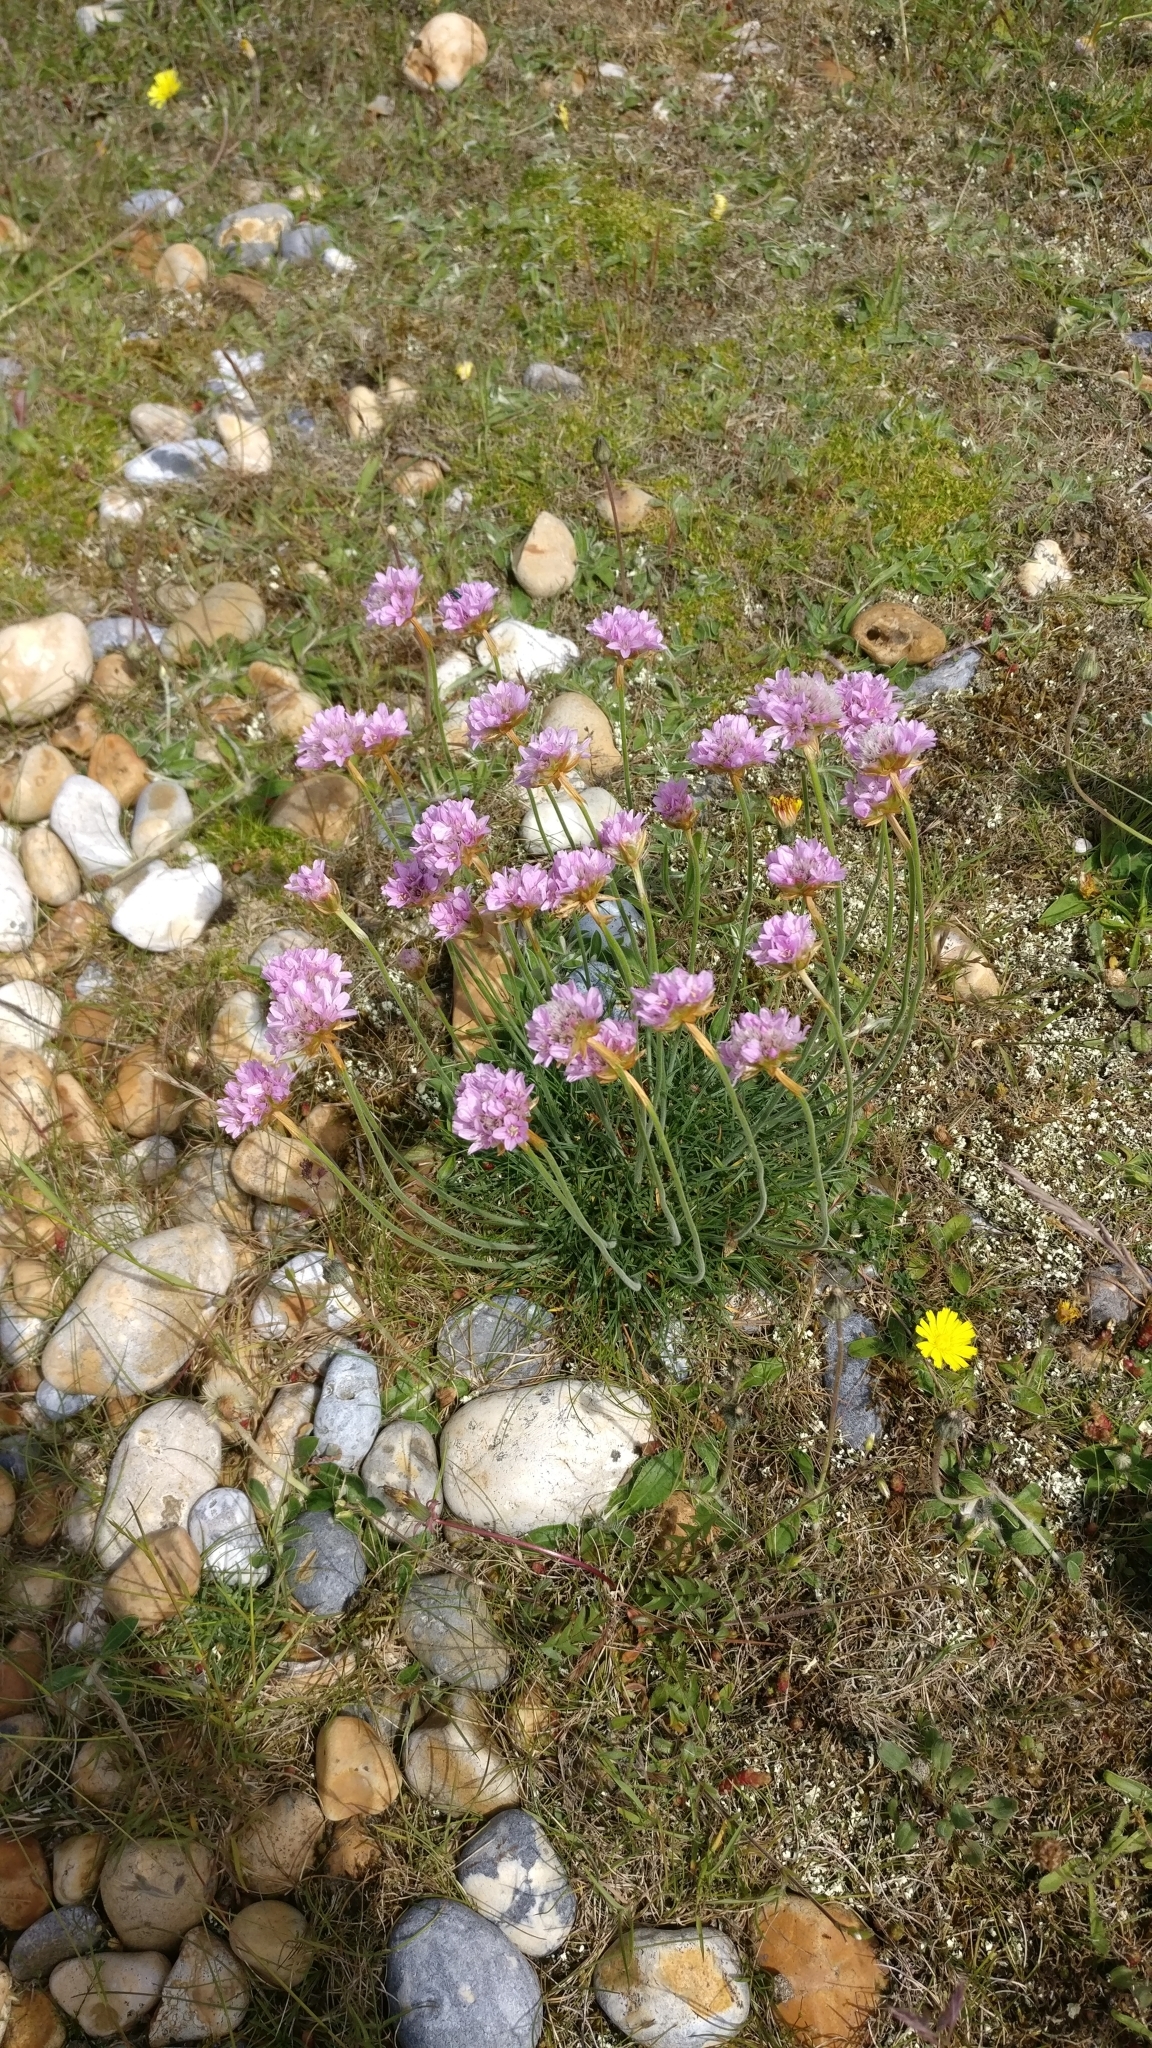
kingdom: Plantae
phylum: Tracheophyta
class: Magnoliopsida
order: Caryophyllales
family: Plumbaginaceae
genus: Armeria
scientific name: Armeria maritima
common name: Thrift
